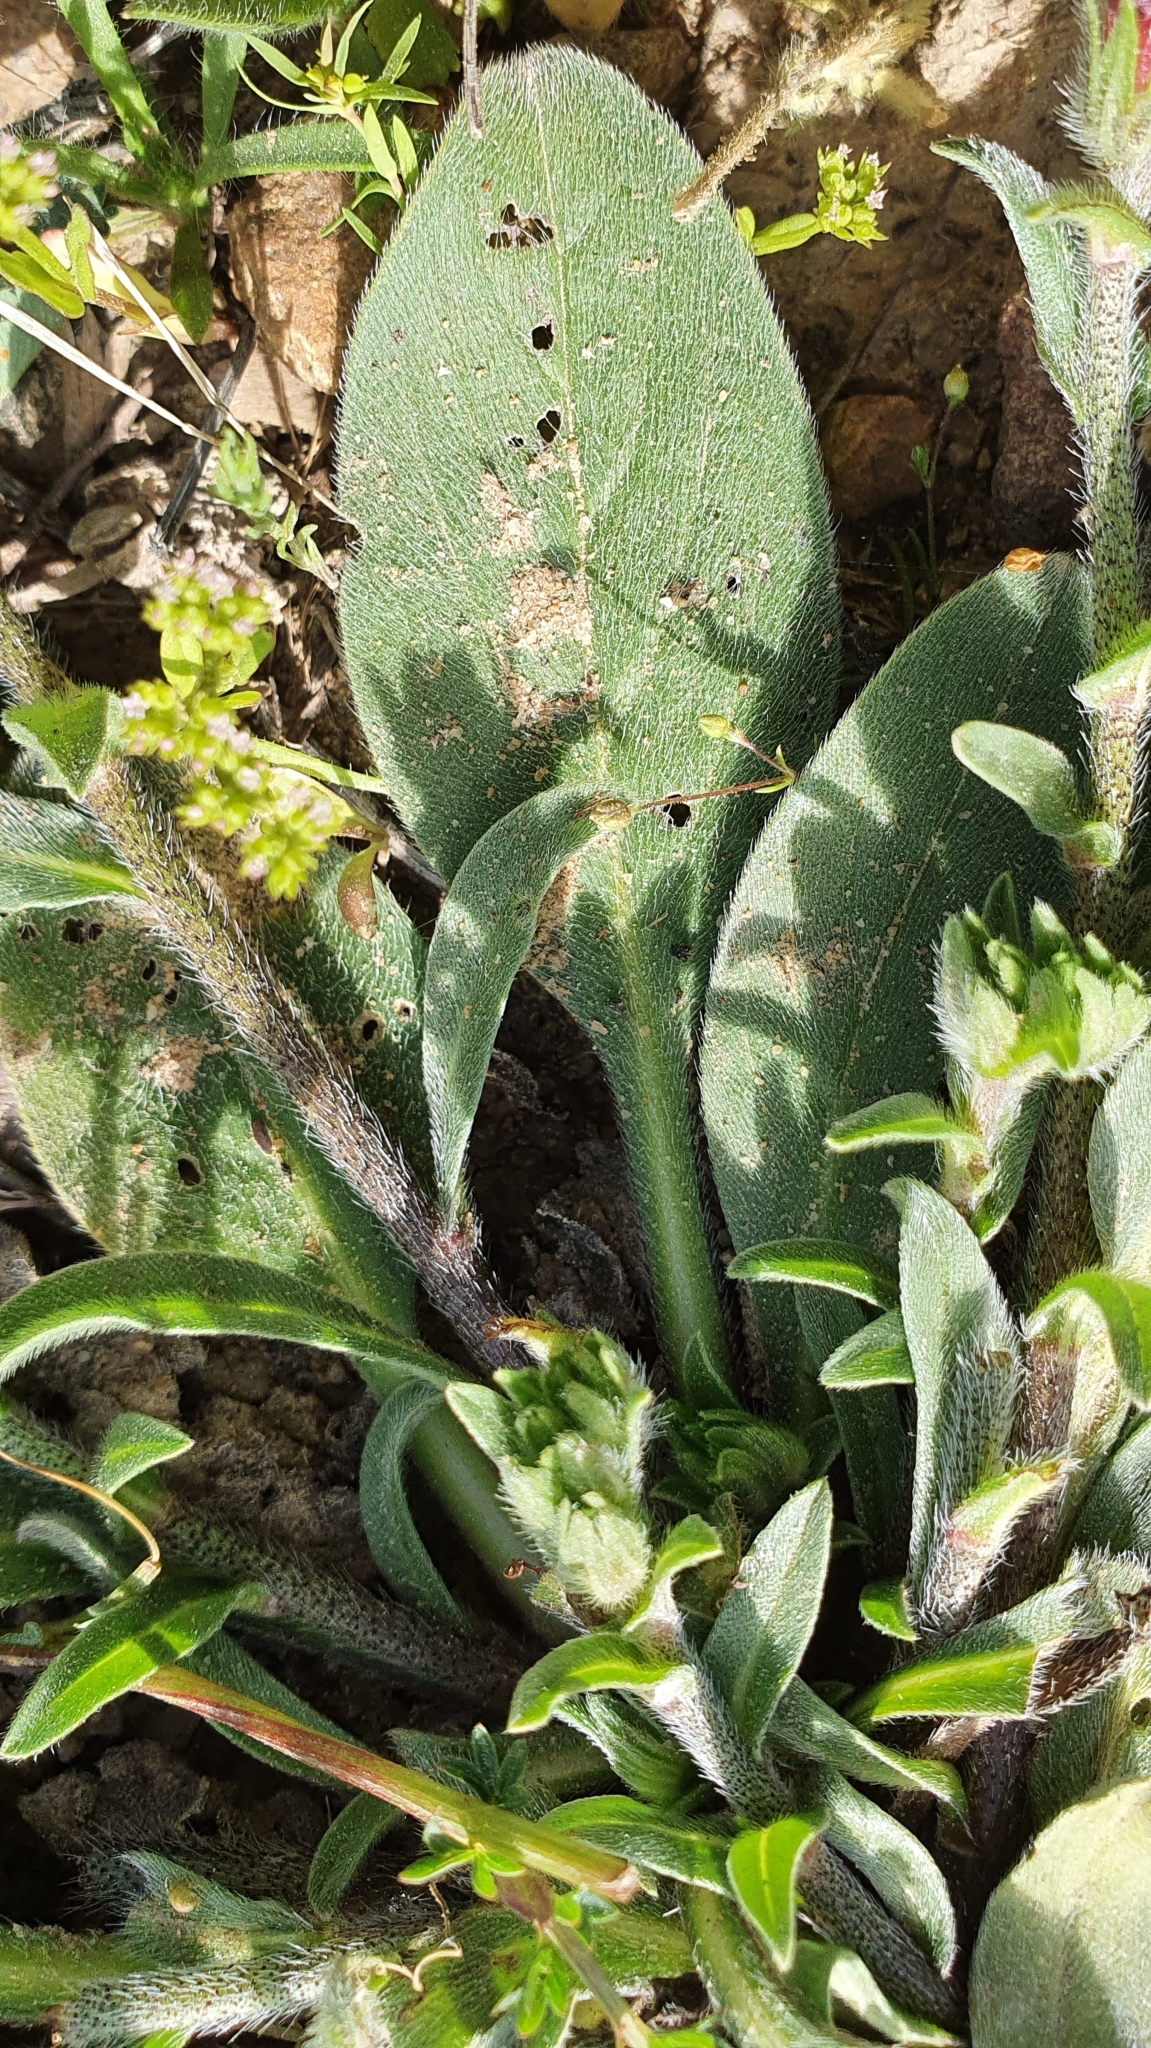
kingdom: Plantae
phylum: Tracheophyta
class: Magnoliopsida
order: Boraginales
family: Boraginaceae
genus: Echium
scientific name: Echium plantagineum
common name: Purple viper's-bugloss
